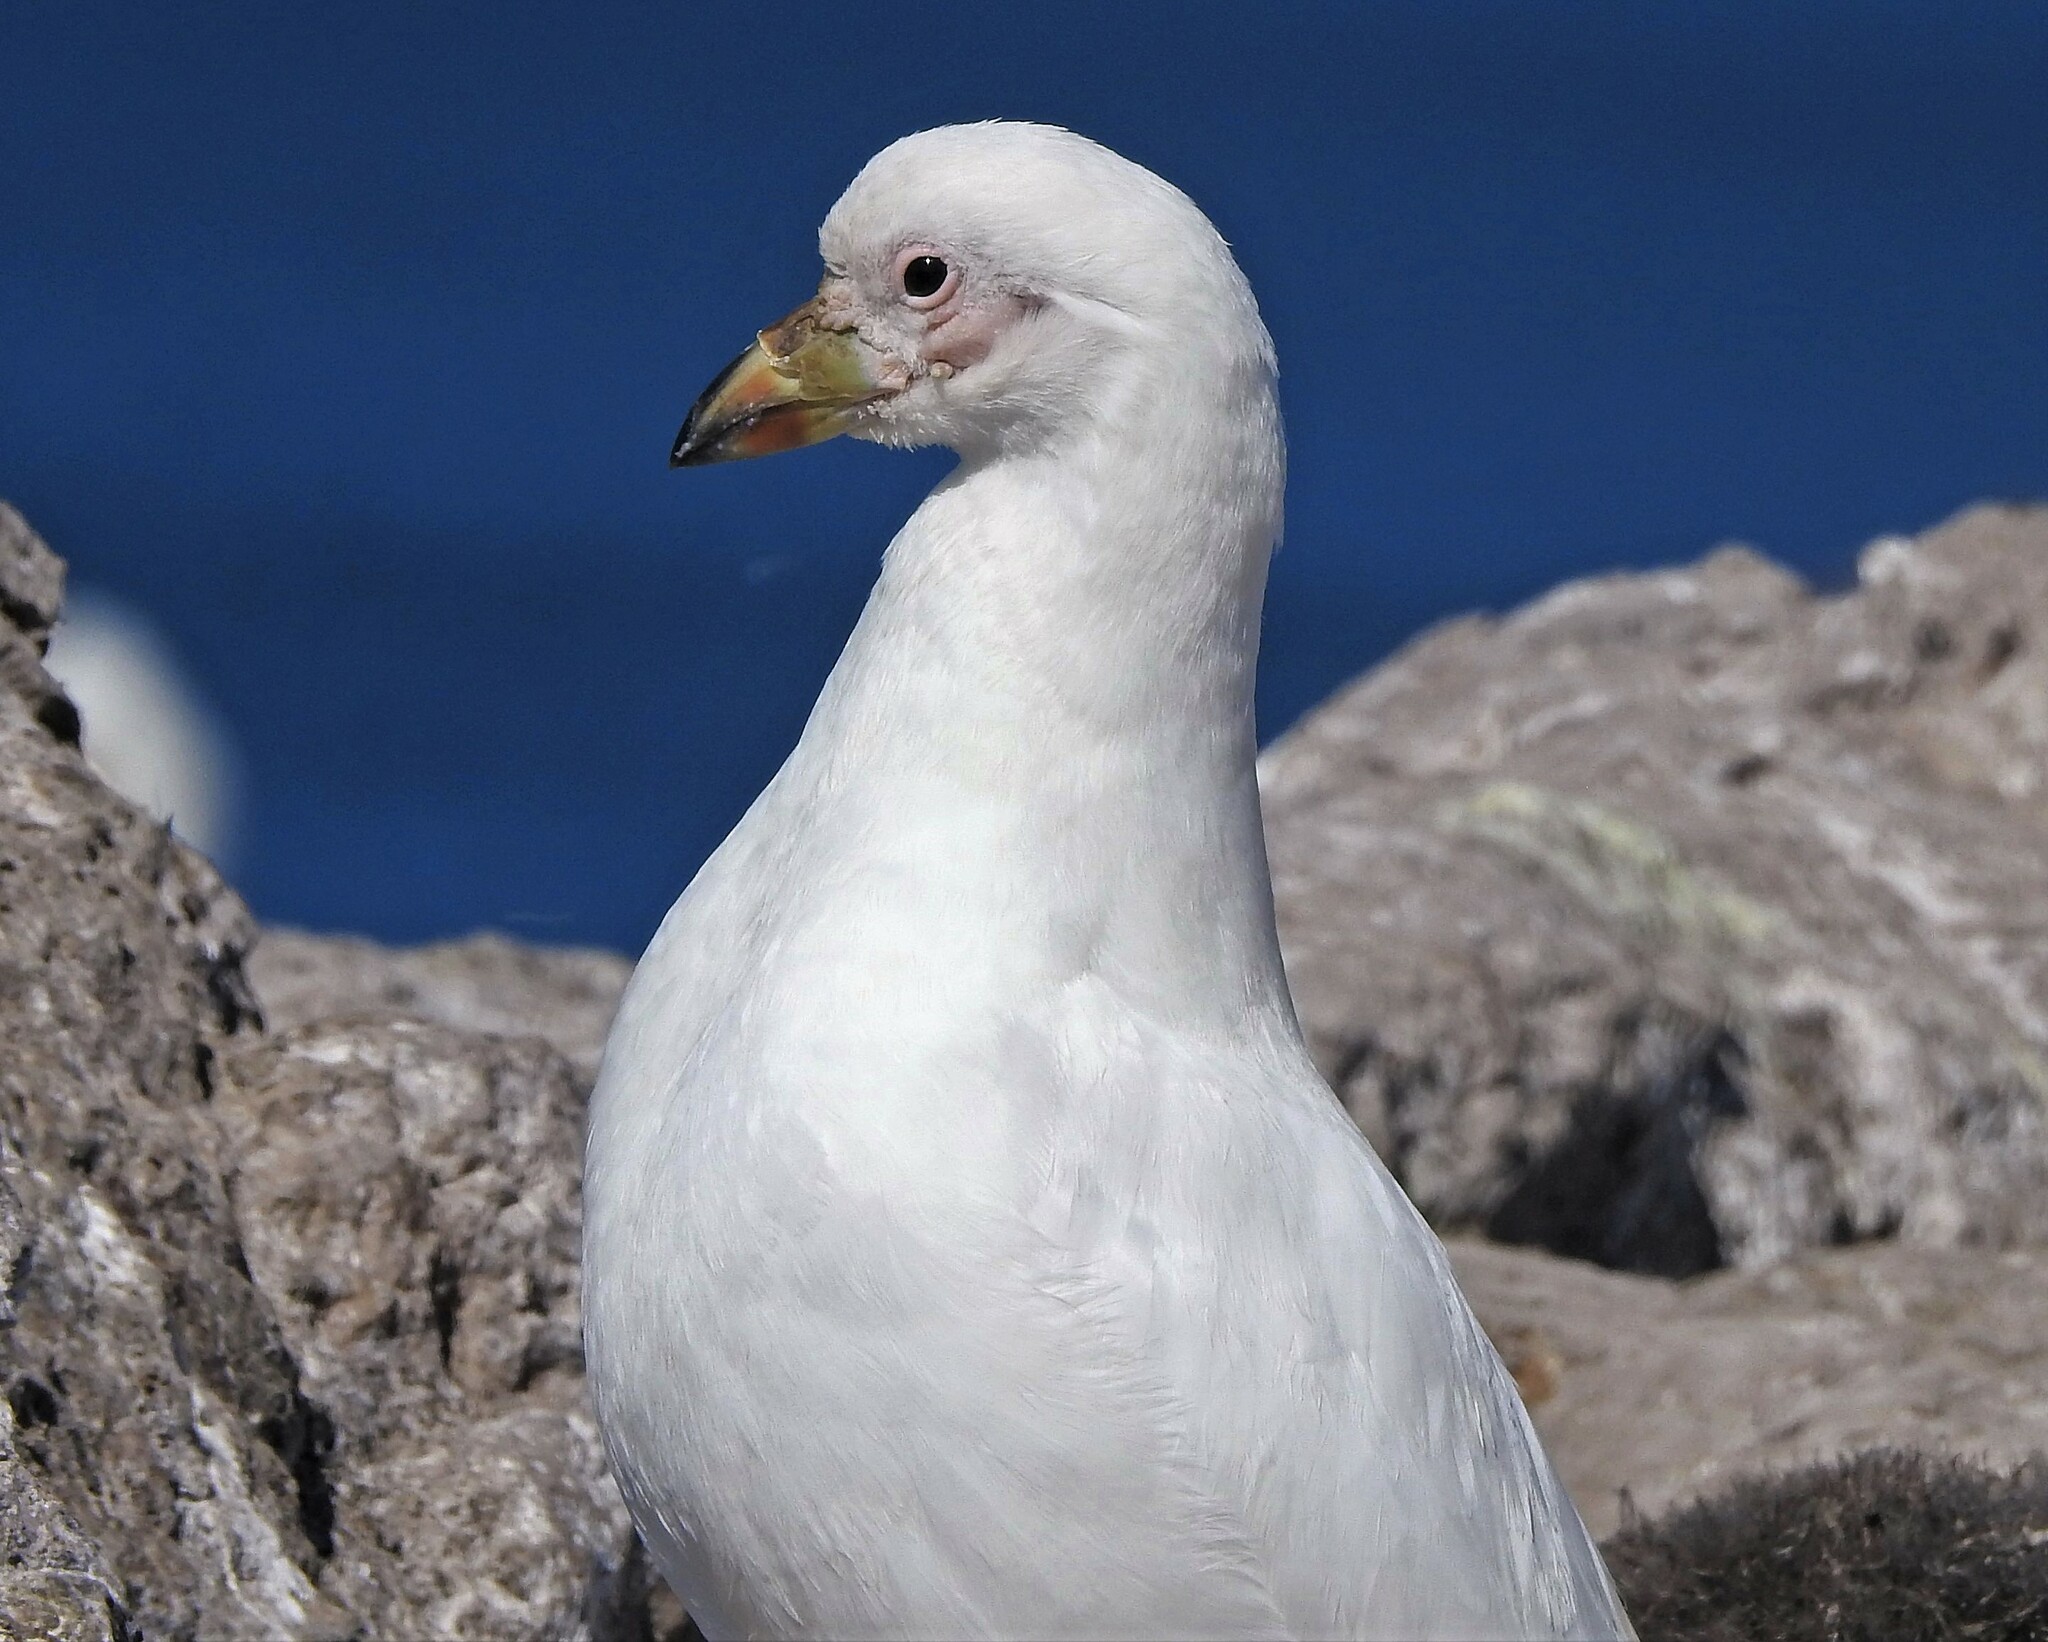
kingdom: Animalia
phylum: Chordata
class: Aves
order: Charadriiformes
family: Chionidae
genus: Chionis
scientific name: Chionis albus
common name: Snowy sheathbill
